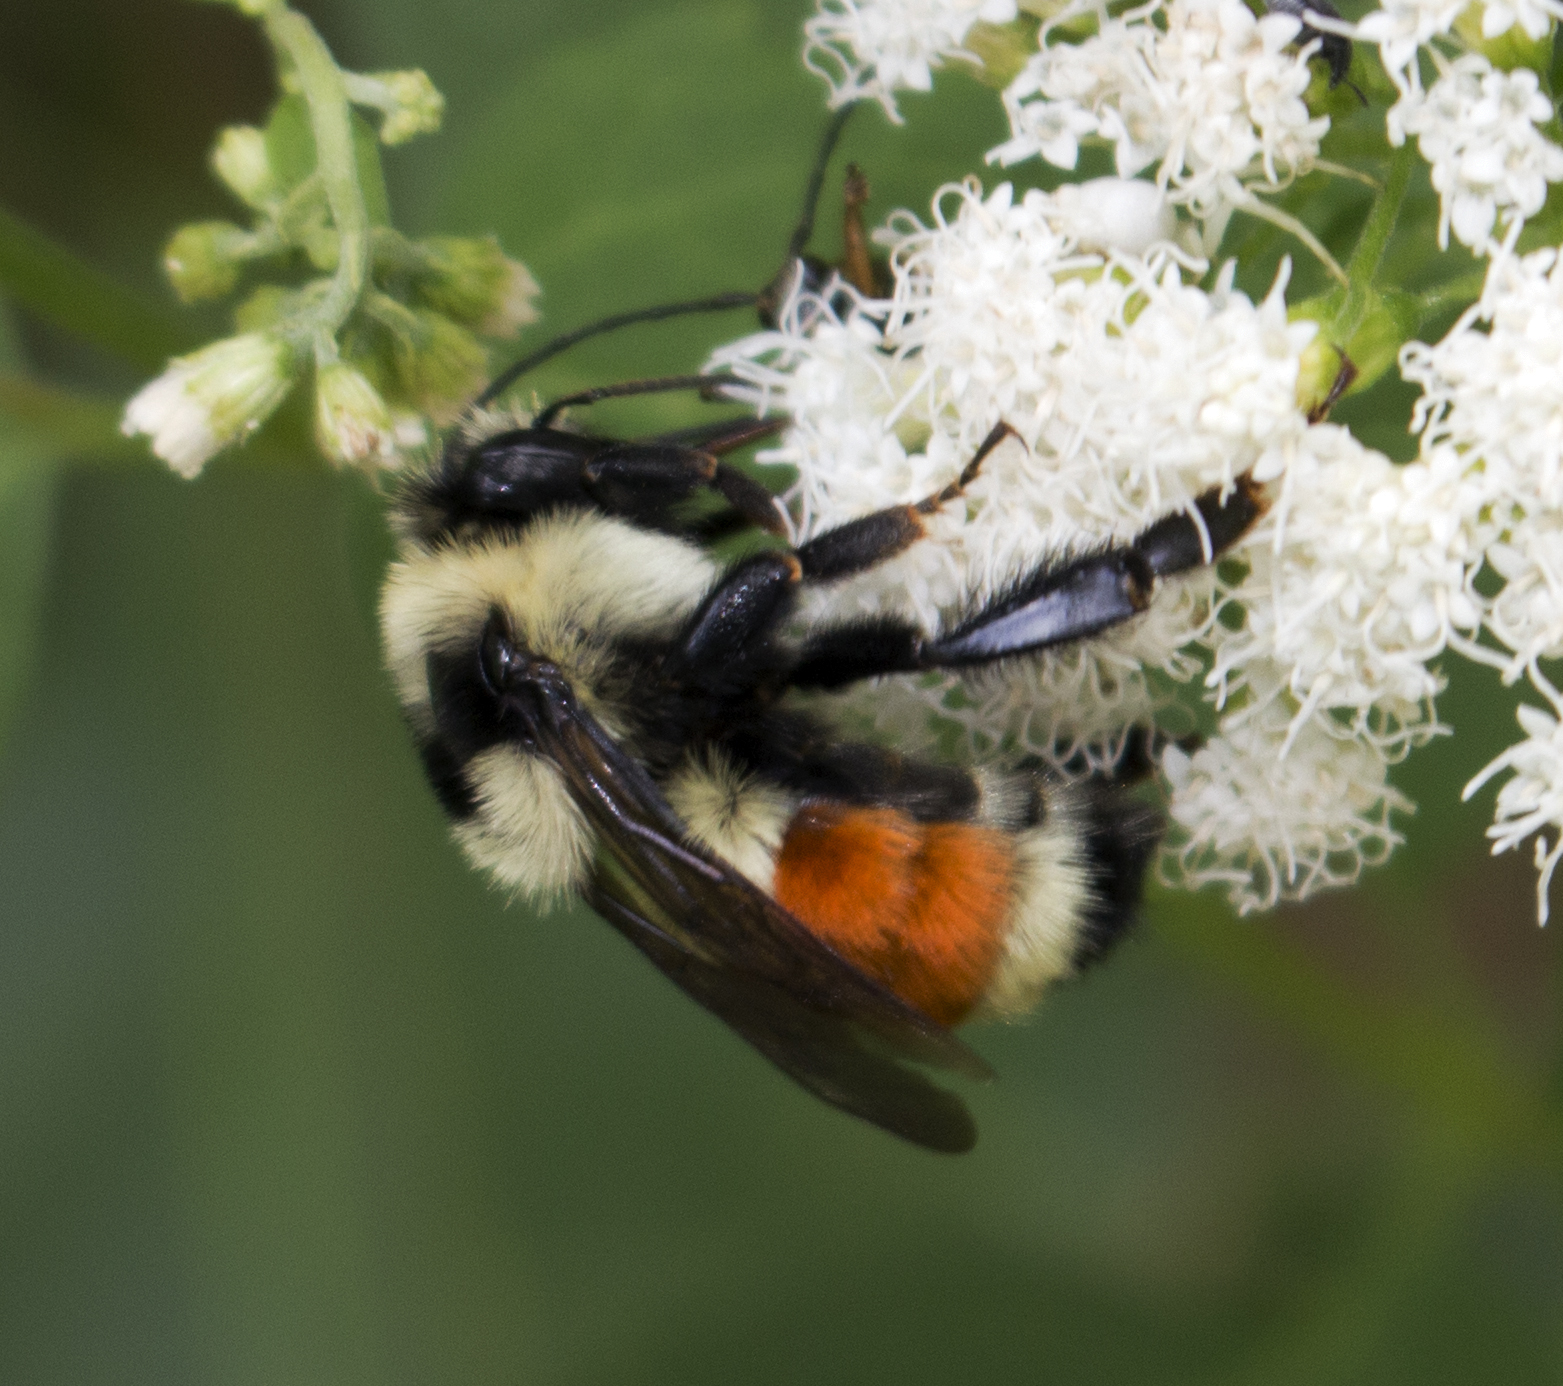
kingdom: Animalia
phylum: Arthropoda
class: Insecta
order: Hymenoptera
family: Apidae
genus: Bombus
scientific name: Bombus ternarius
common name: Tri-colored bumble bee
